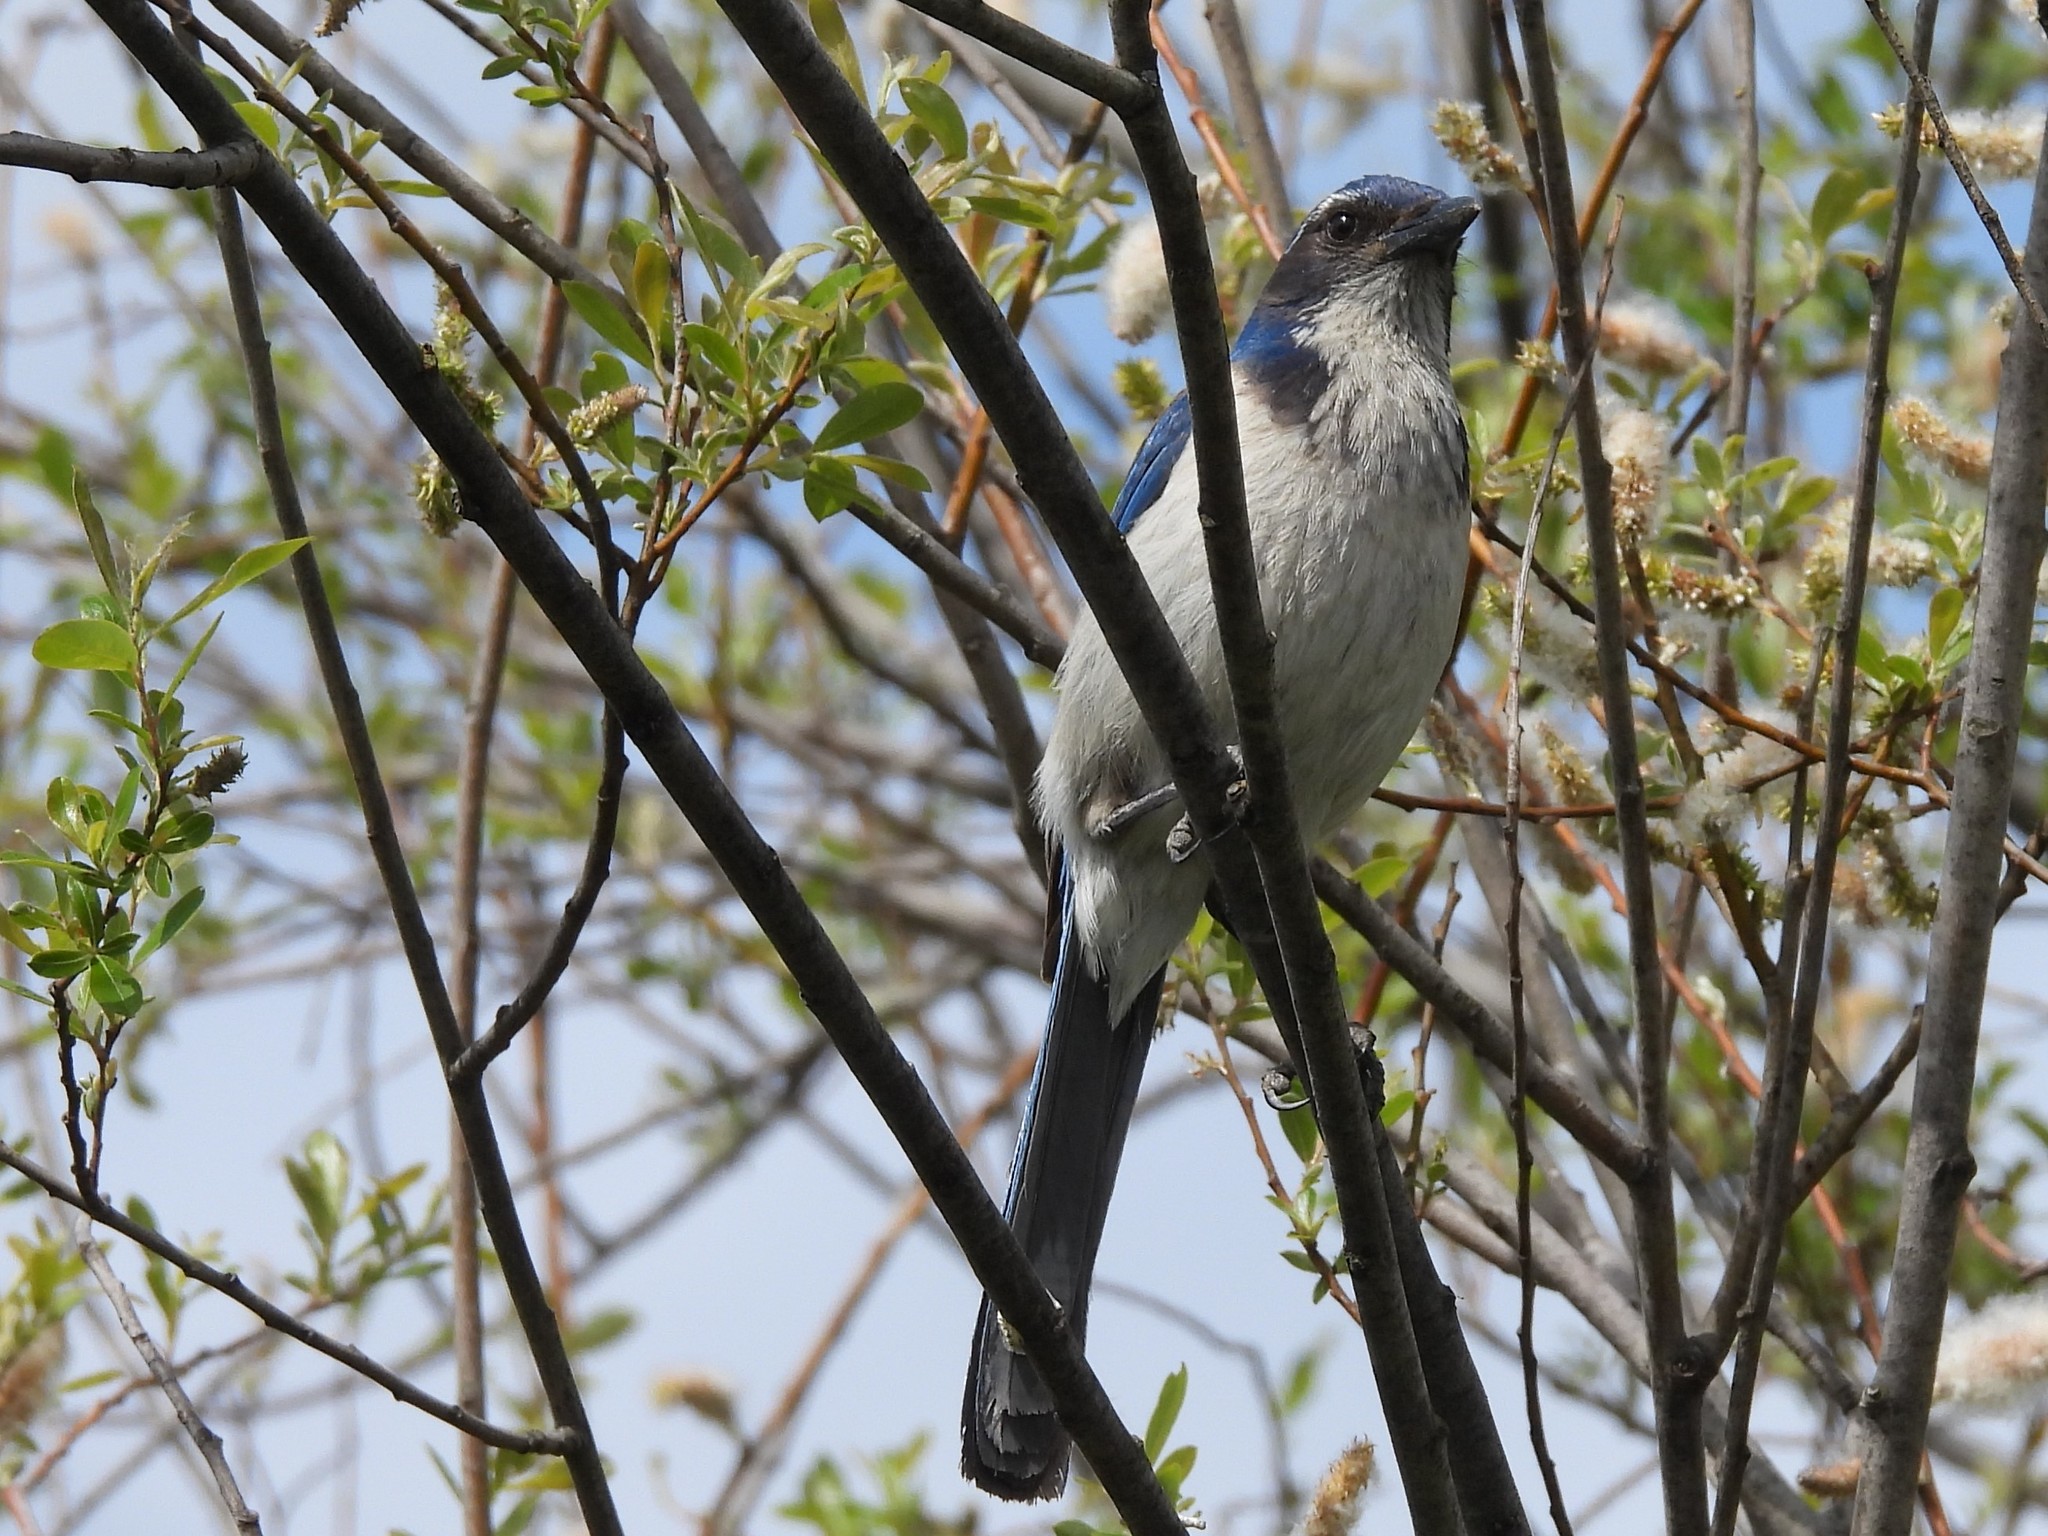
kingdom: Animalia
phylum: Chordata
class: Aves
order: Passeriformes
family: Corvidae
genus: Aphelocoma
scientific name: Aphelocoma californica
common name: California scrub-jay
